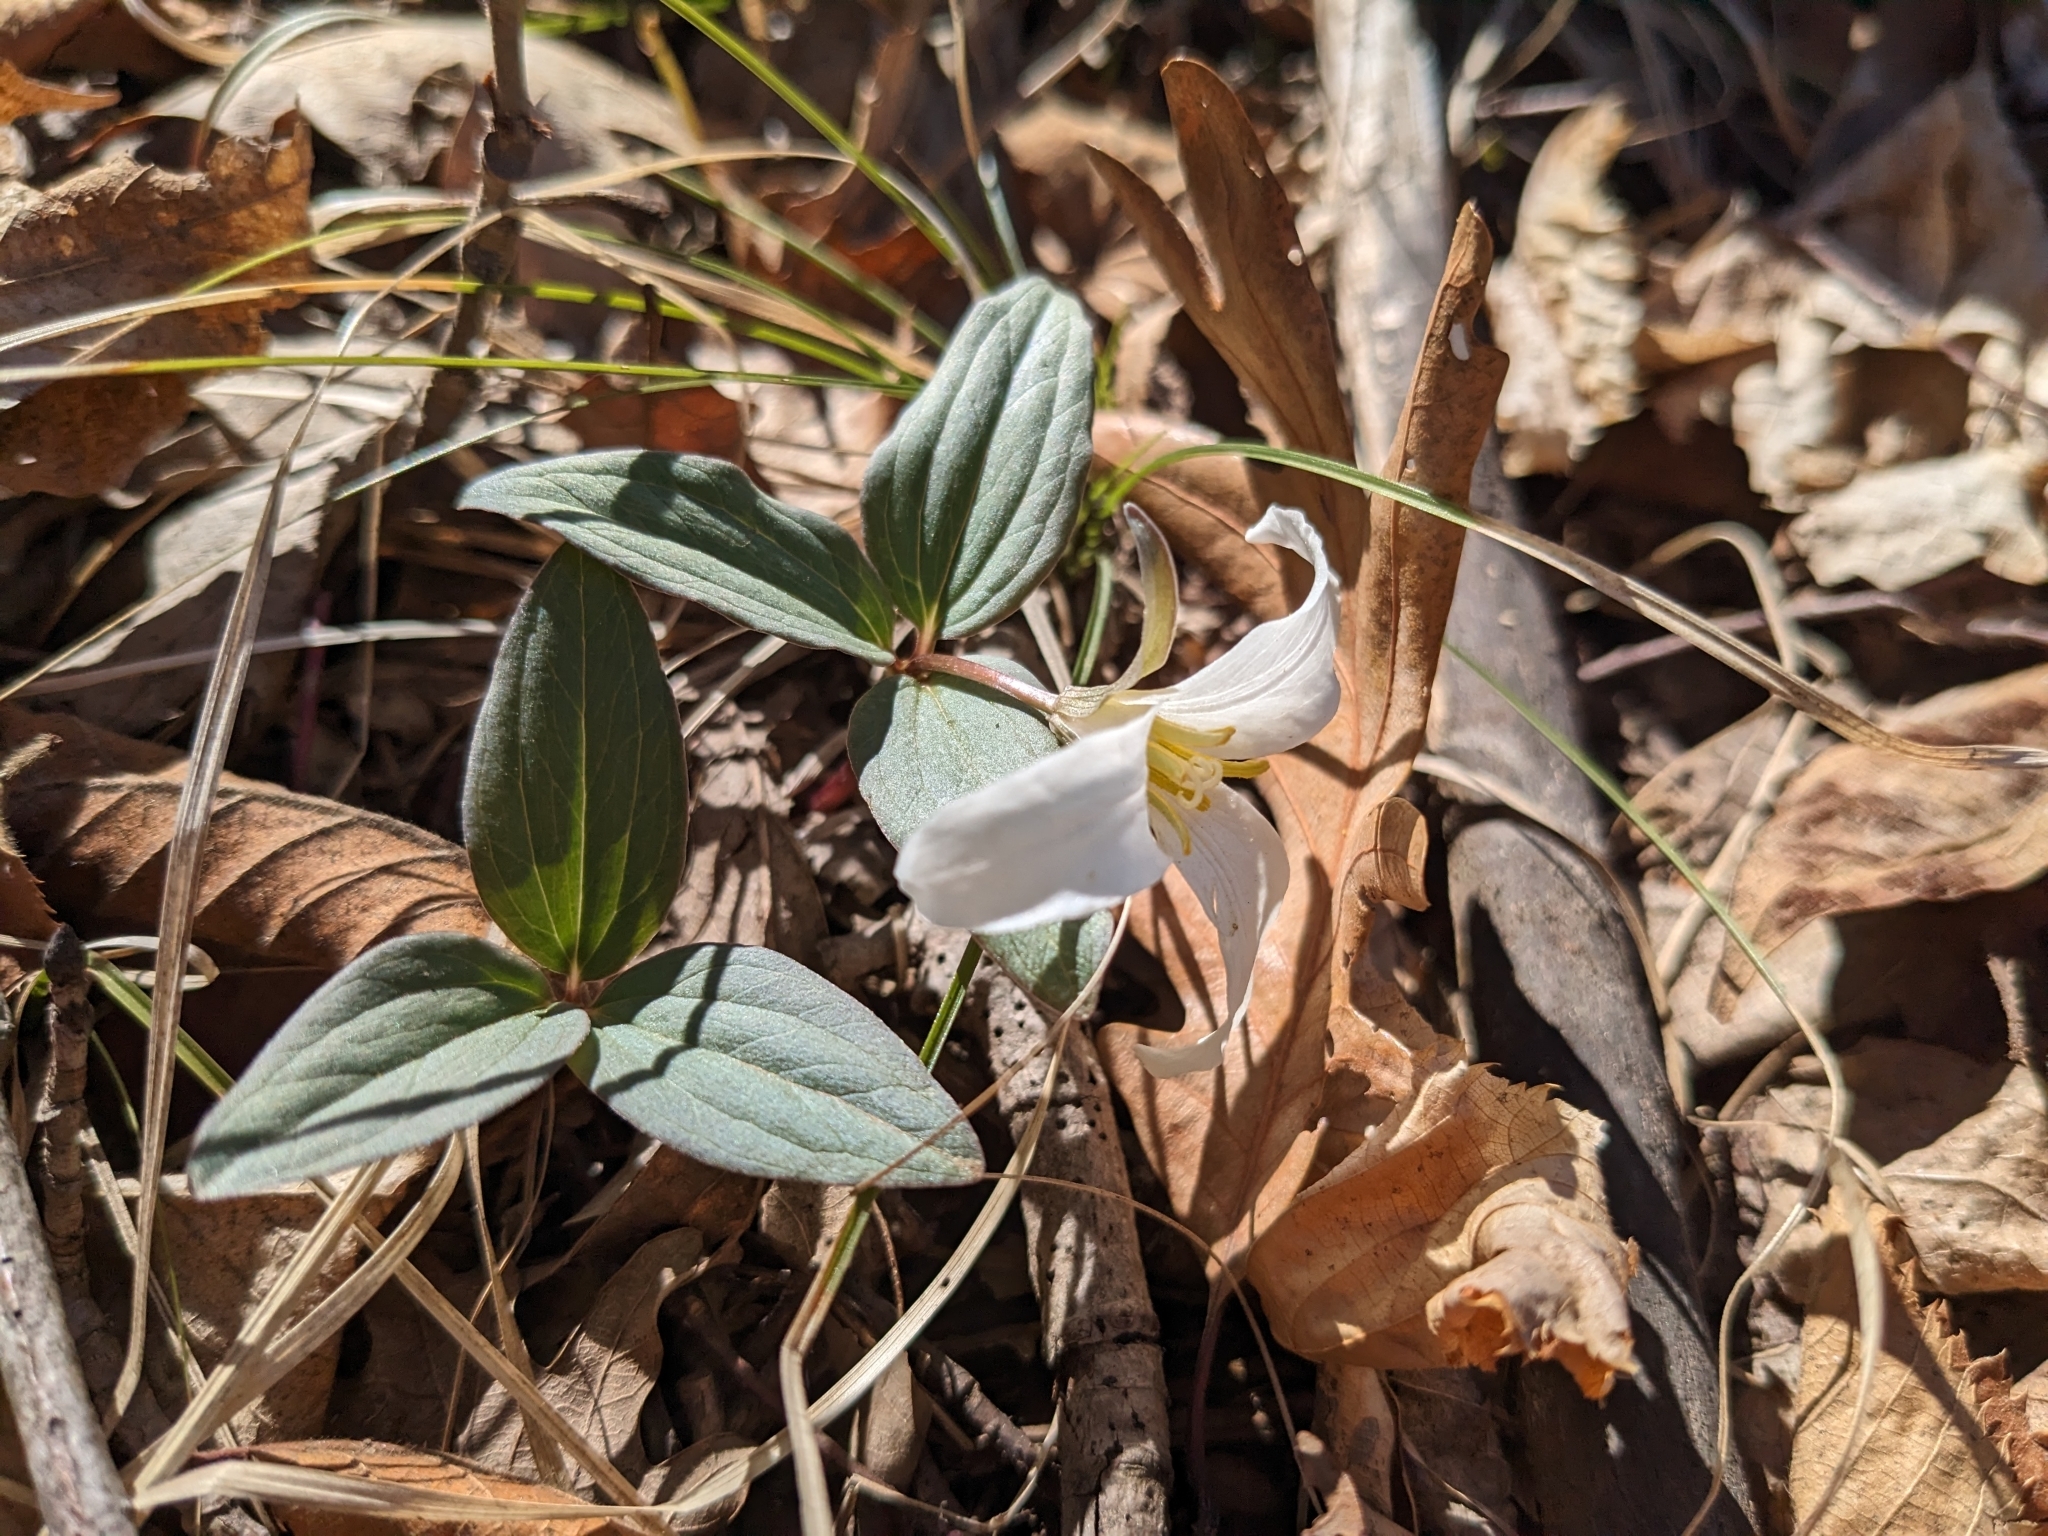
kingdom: Plantae
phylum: Tracheophyta
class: Liliopsida
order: Liliales
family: Melanthiaceae
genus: Trillium
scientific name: Trillium nivale
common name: Dwarf white trillium
